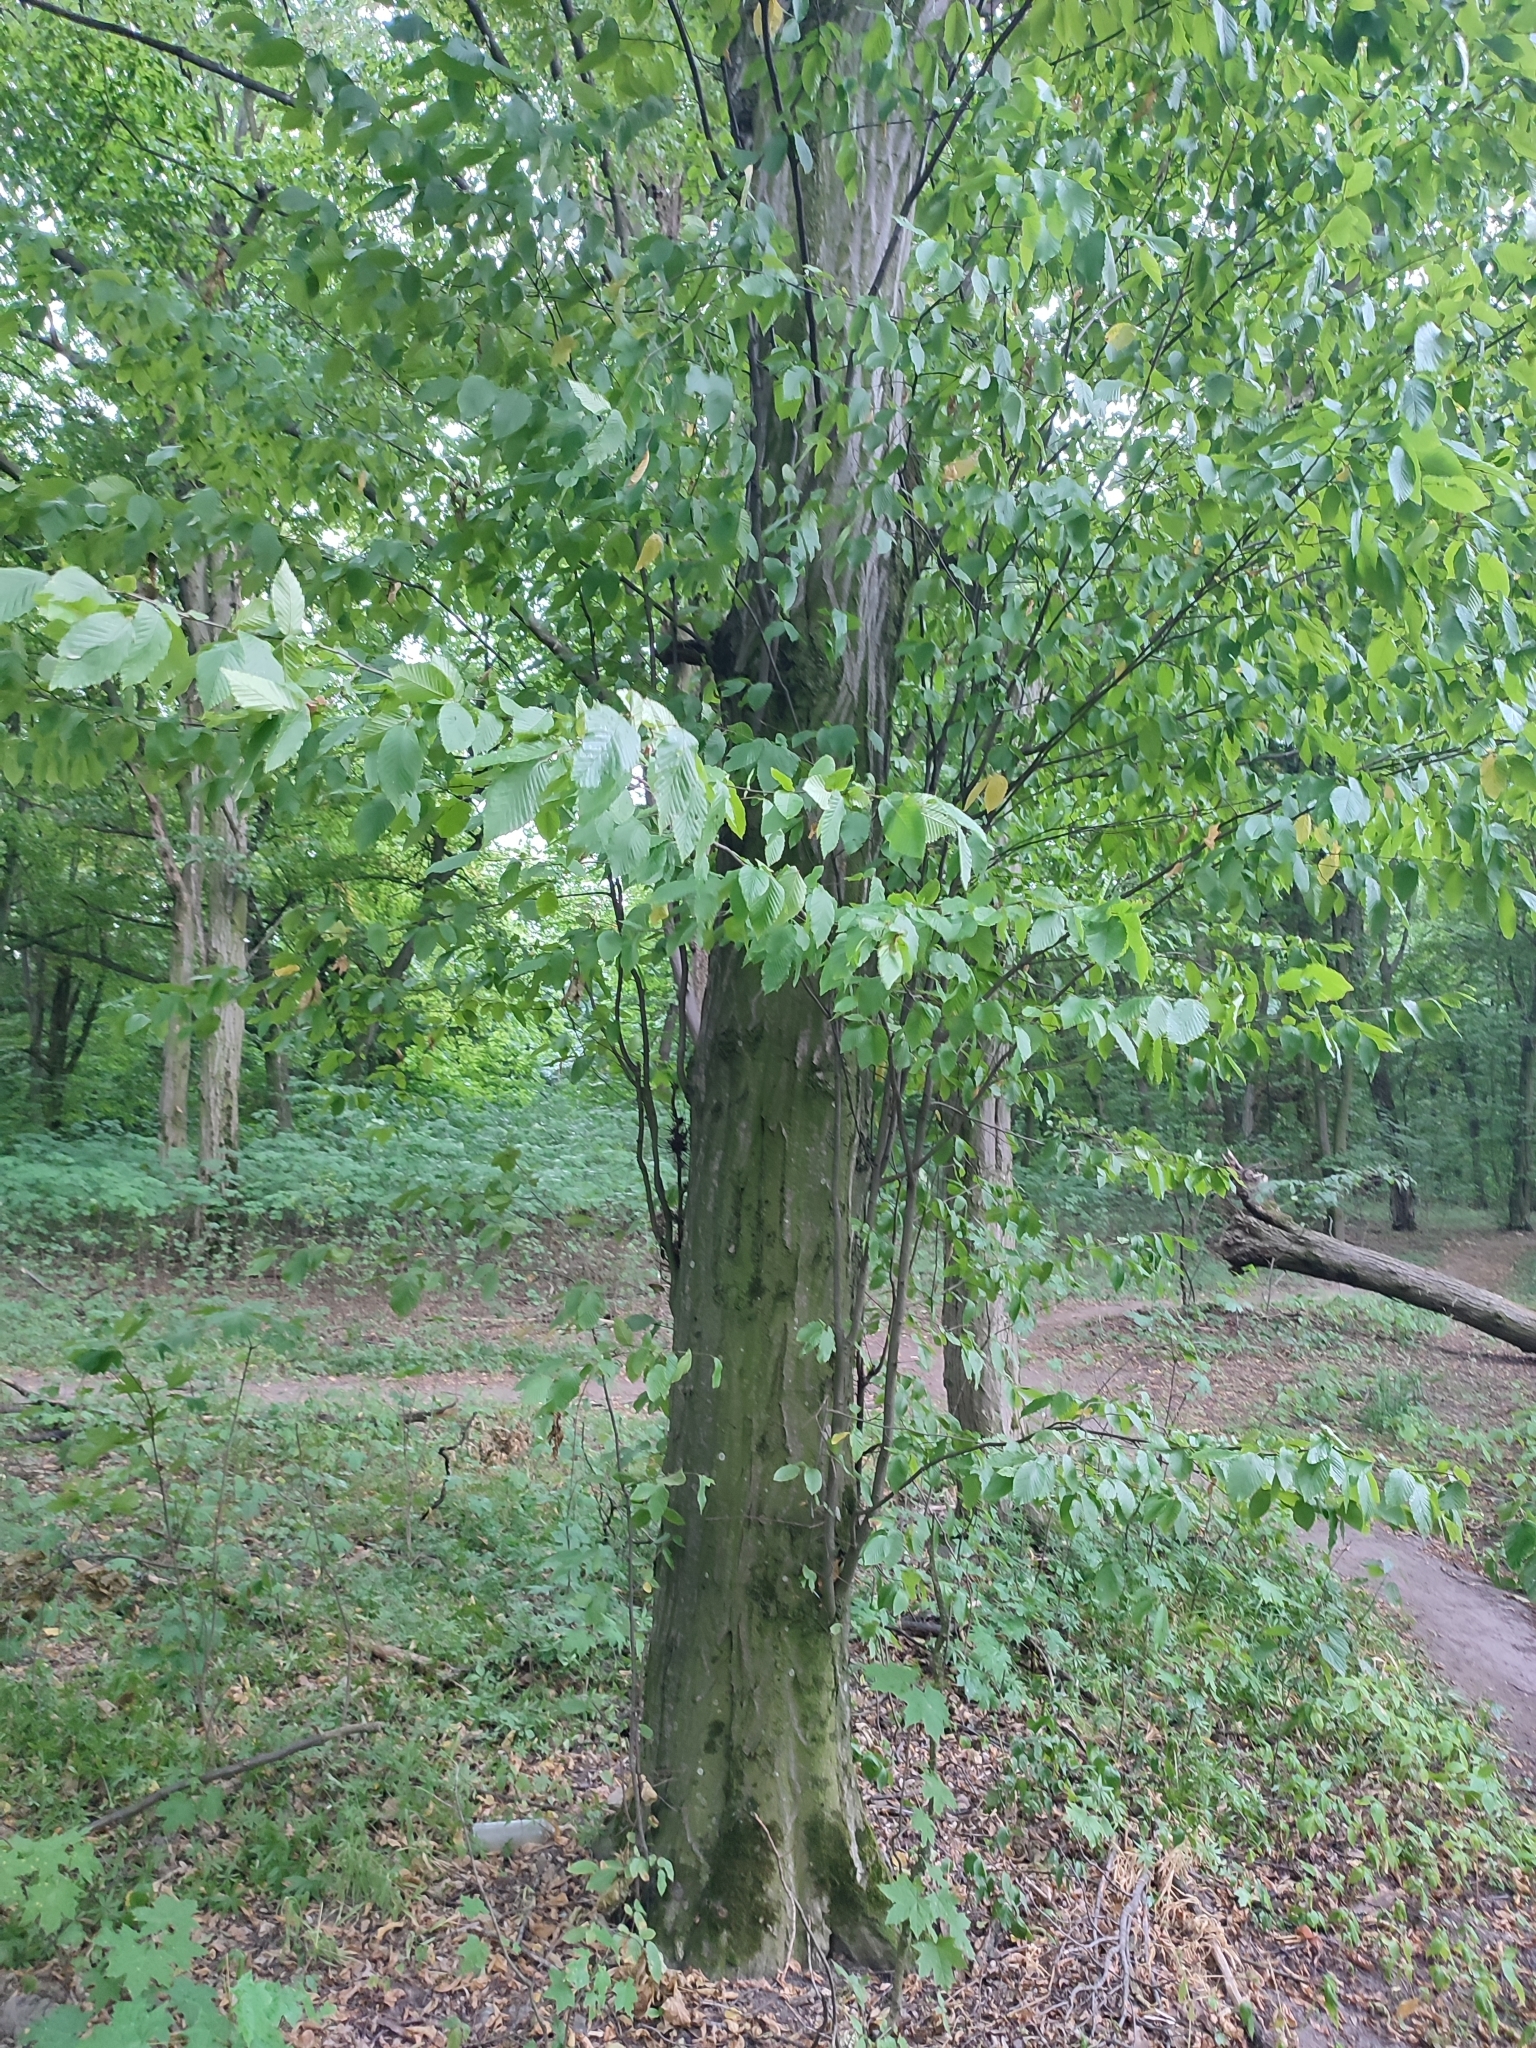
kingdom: Plantae
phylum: Tracheophyta
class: Magnoliopsida
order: Fagales
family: Betulaceae
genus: Carpinus
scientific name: Carpinus betulus
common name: Hornbeam
